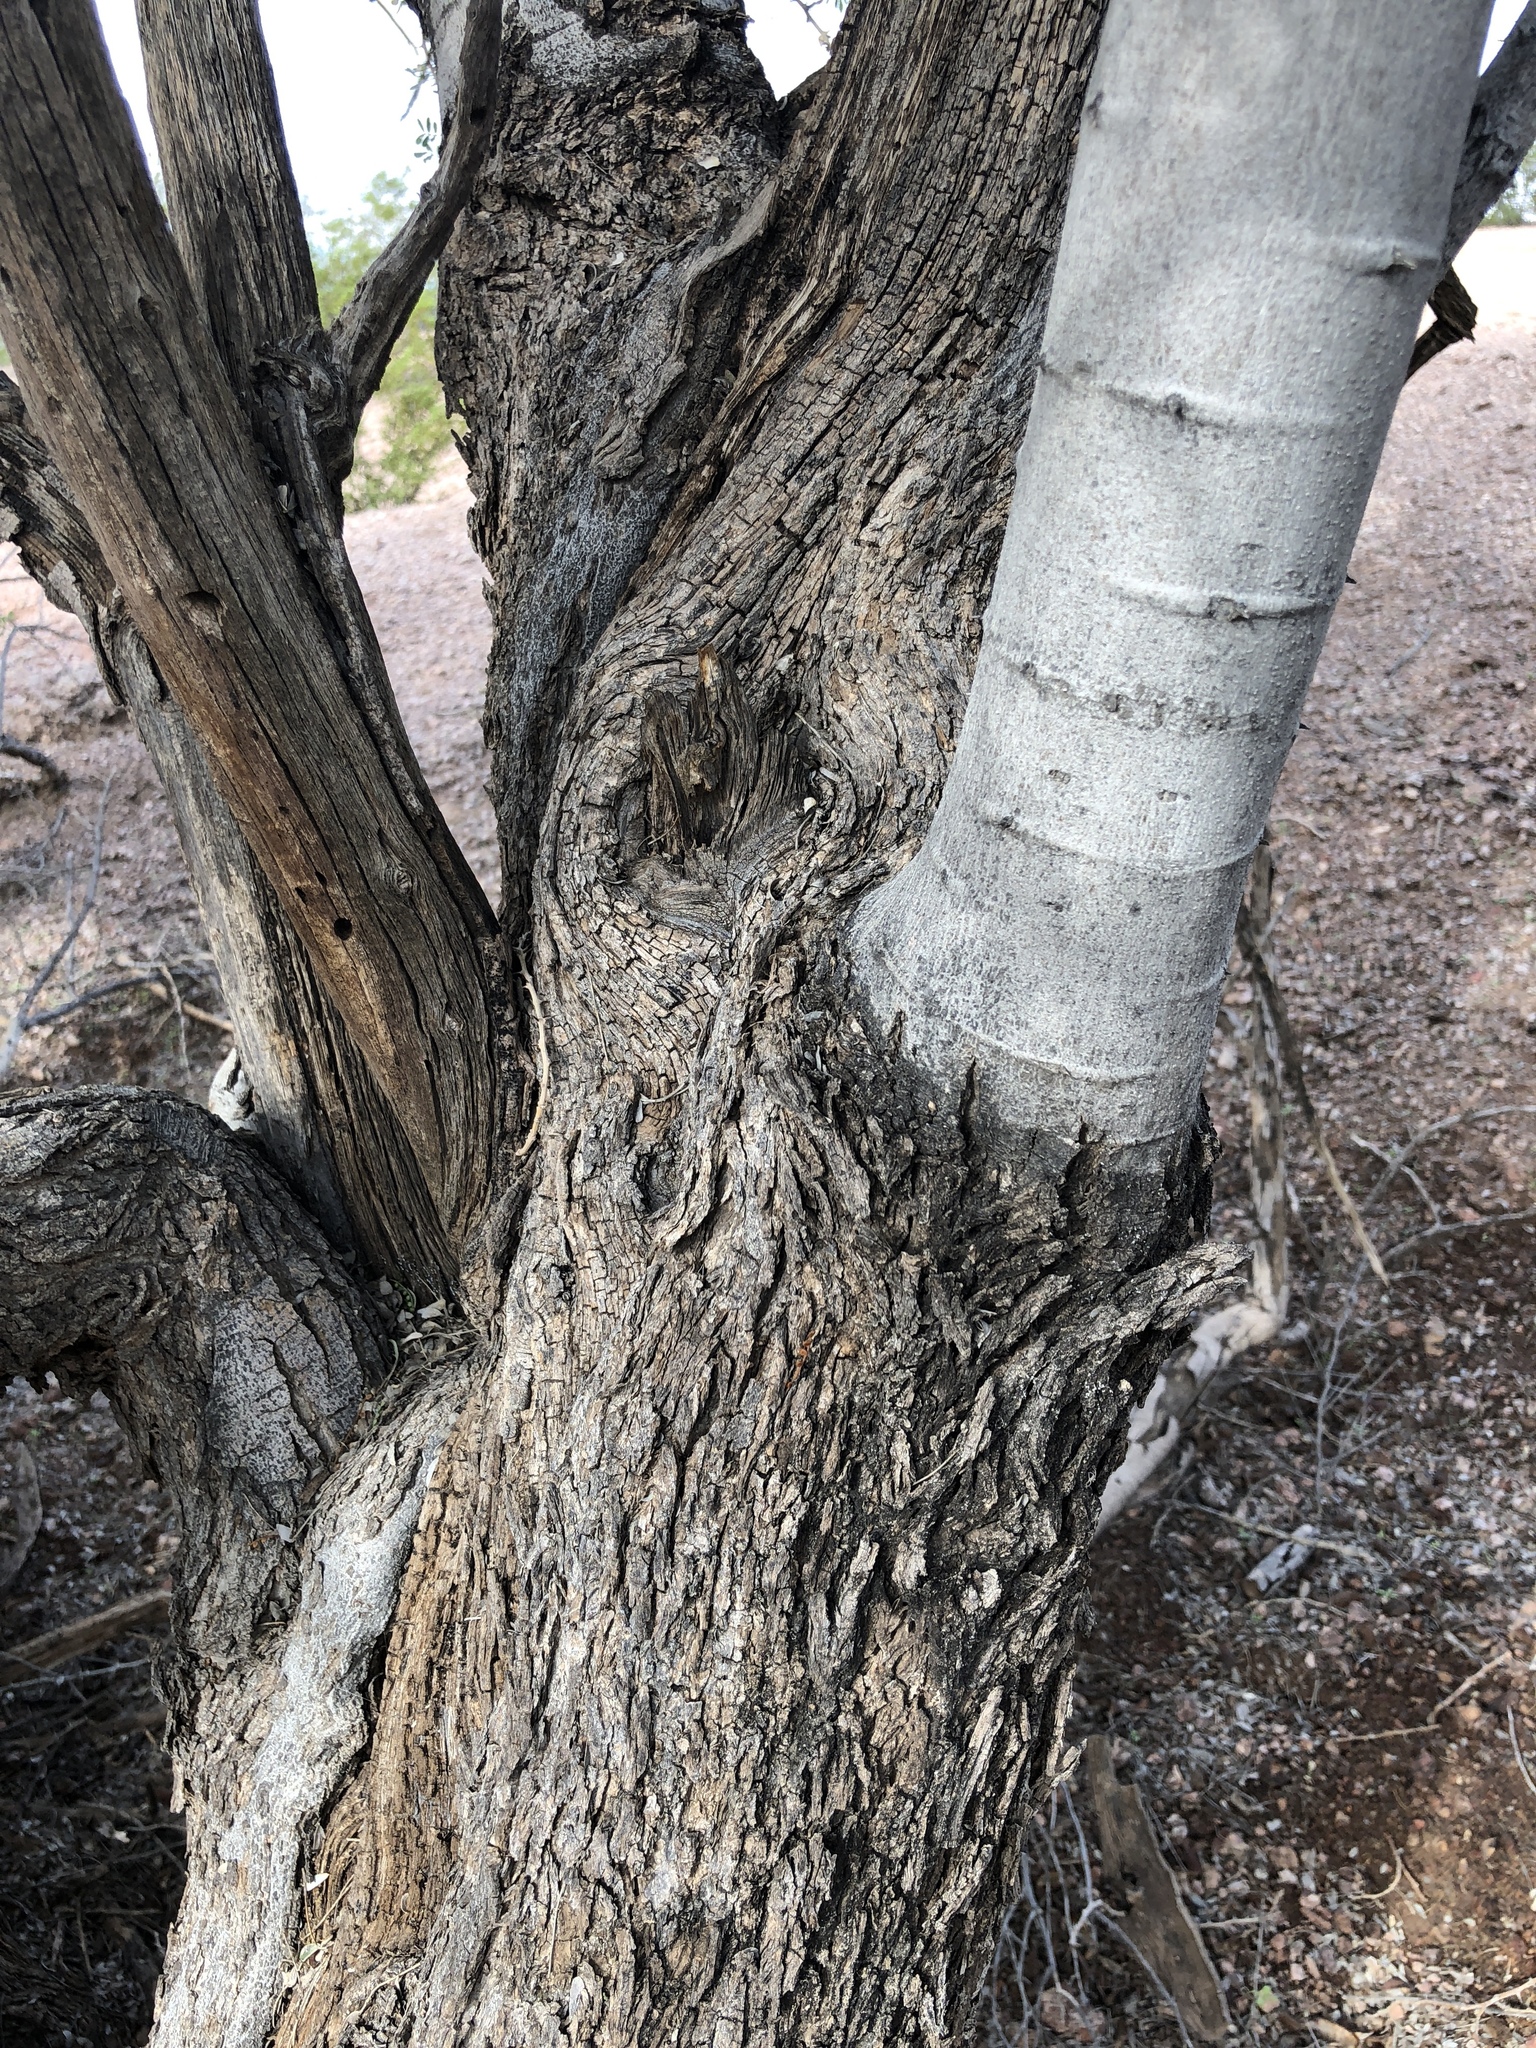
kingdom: Plantae
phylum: Tracheophyta
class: Magnoliopsida
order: Fabales
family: Fabaceae
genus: Olneya
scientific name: Olneya tesota
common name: Desert ironwood
